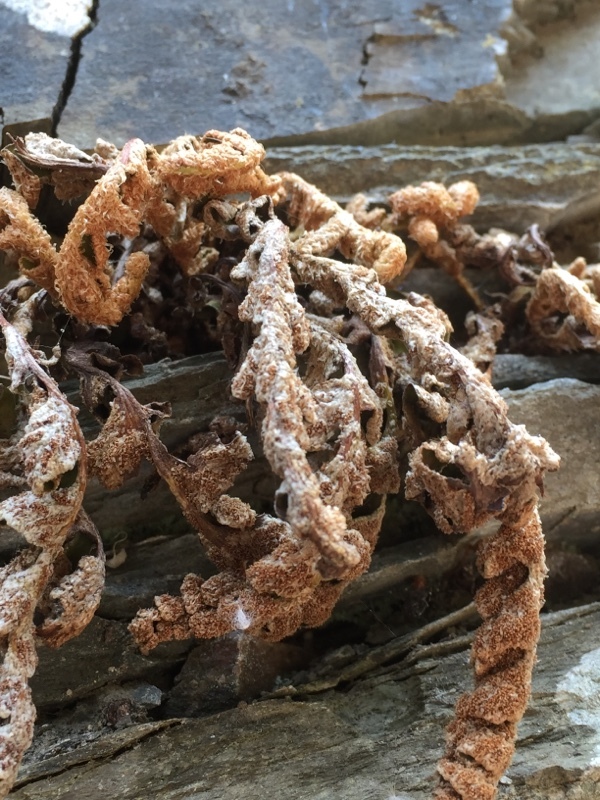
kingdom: Plantae
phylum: Tracheophyta
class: Polypodiopsida
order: Polypodiales
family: Aspleniaceae
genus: Asplenium
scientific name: Asplenium ceterach
